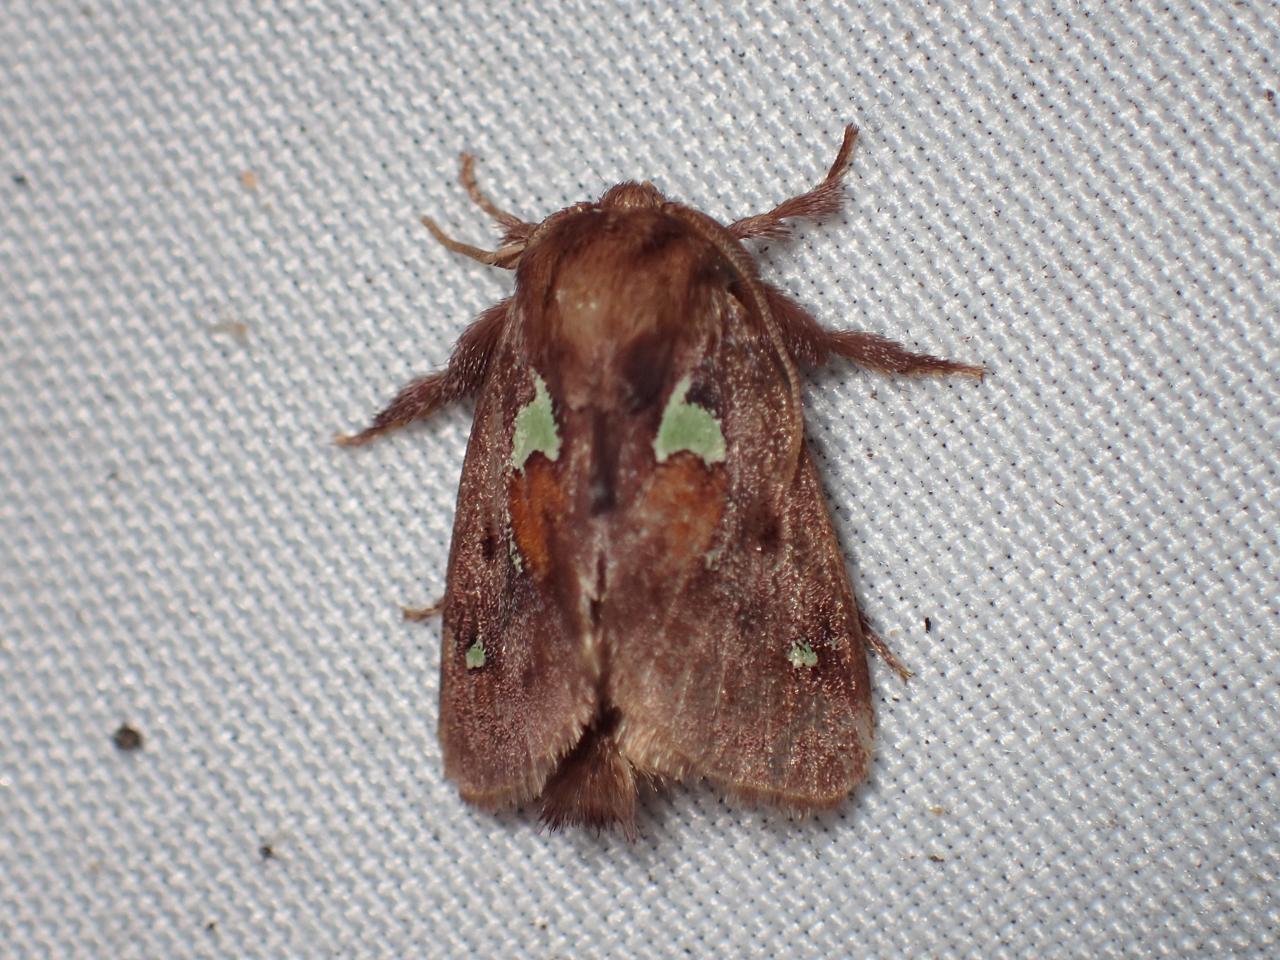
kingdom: Animalia
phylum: Arthropoda
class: Insecta
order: Lepidoptera
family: Limacodidae
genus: Euclea
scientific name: Euclea delphinii
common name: Spiny oak-slug moth
